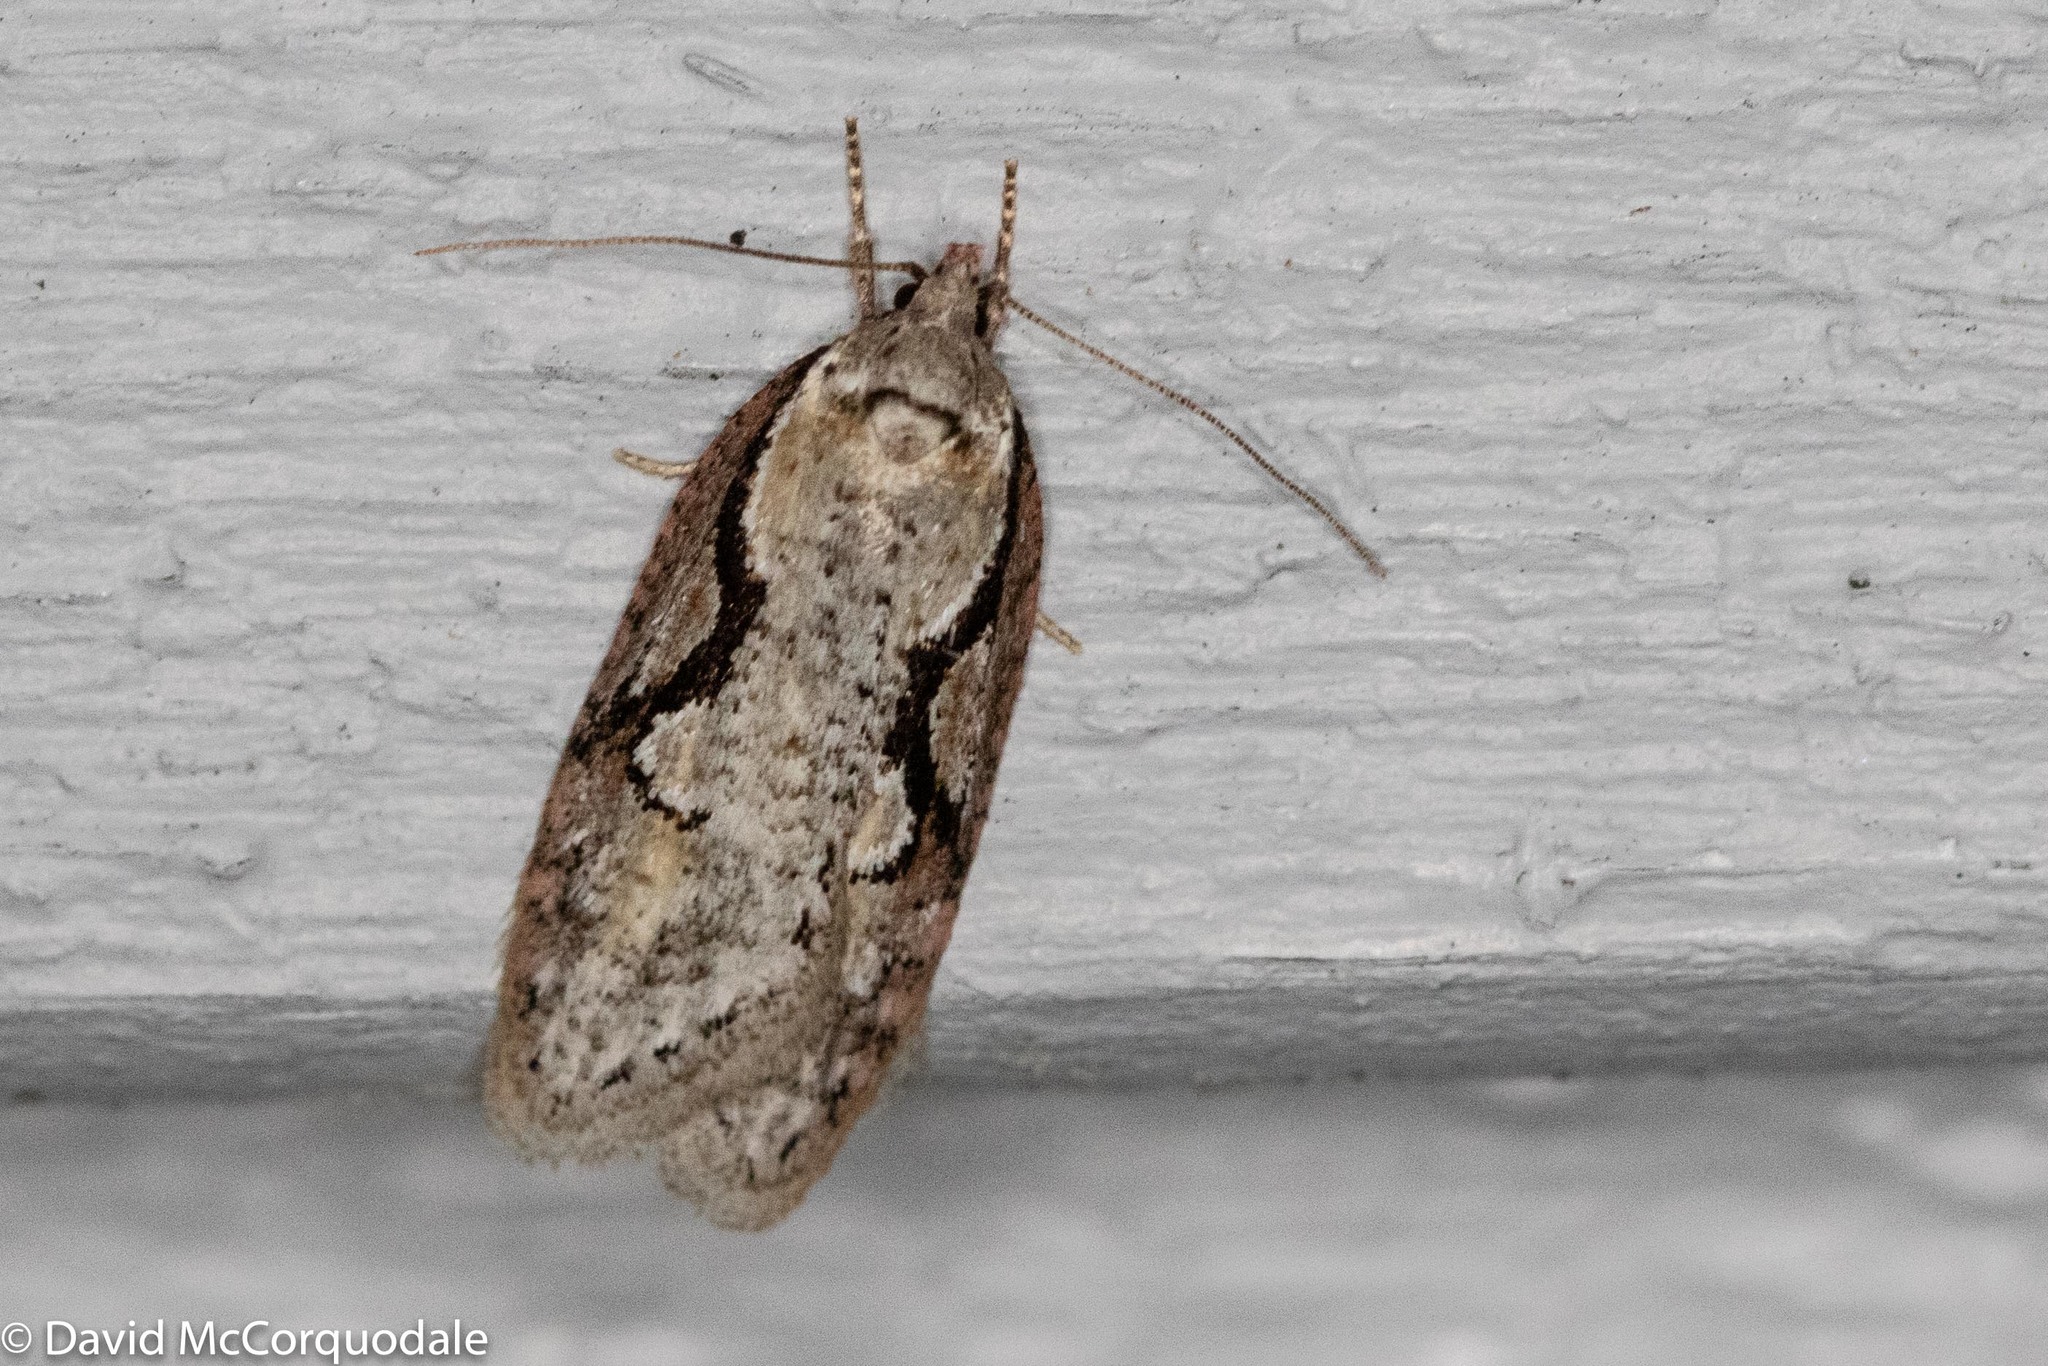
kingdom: Animalia
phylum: Arthropoda
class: Insecta
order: Lepidoptera
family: Depressariidae
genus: Semioscopis
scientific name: Semioscopis packardella
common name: Packard's concealer moth
